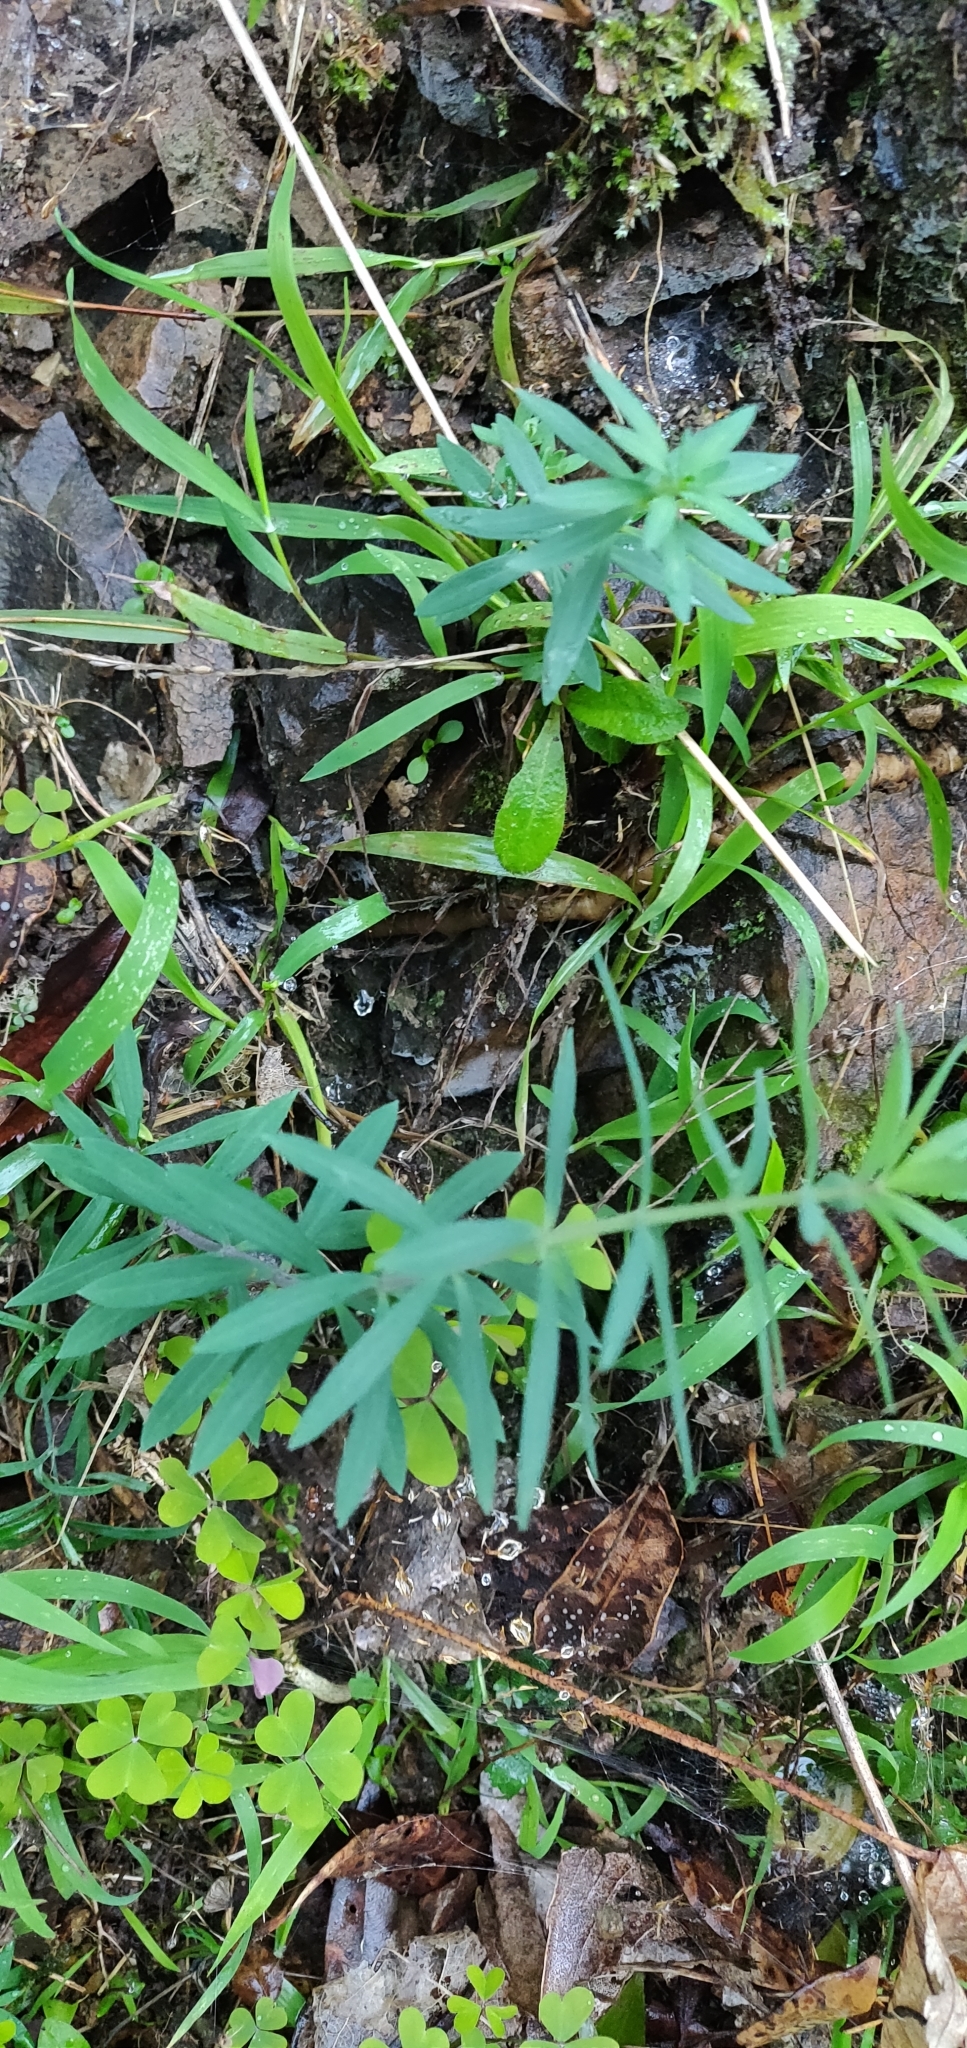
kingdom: Plantae
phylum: Tracheophyta
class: Magnoliopsida
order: Lamiales
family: Plantaginaceae
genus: Linaria
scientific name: Linaria purpurea
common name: Purple toadflax
